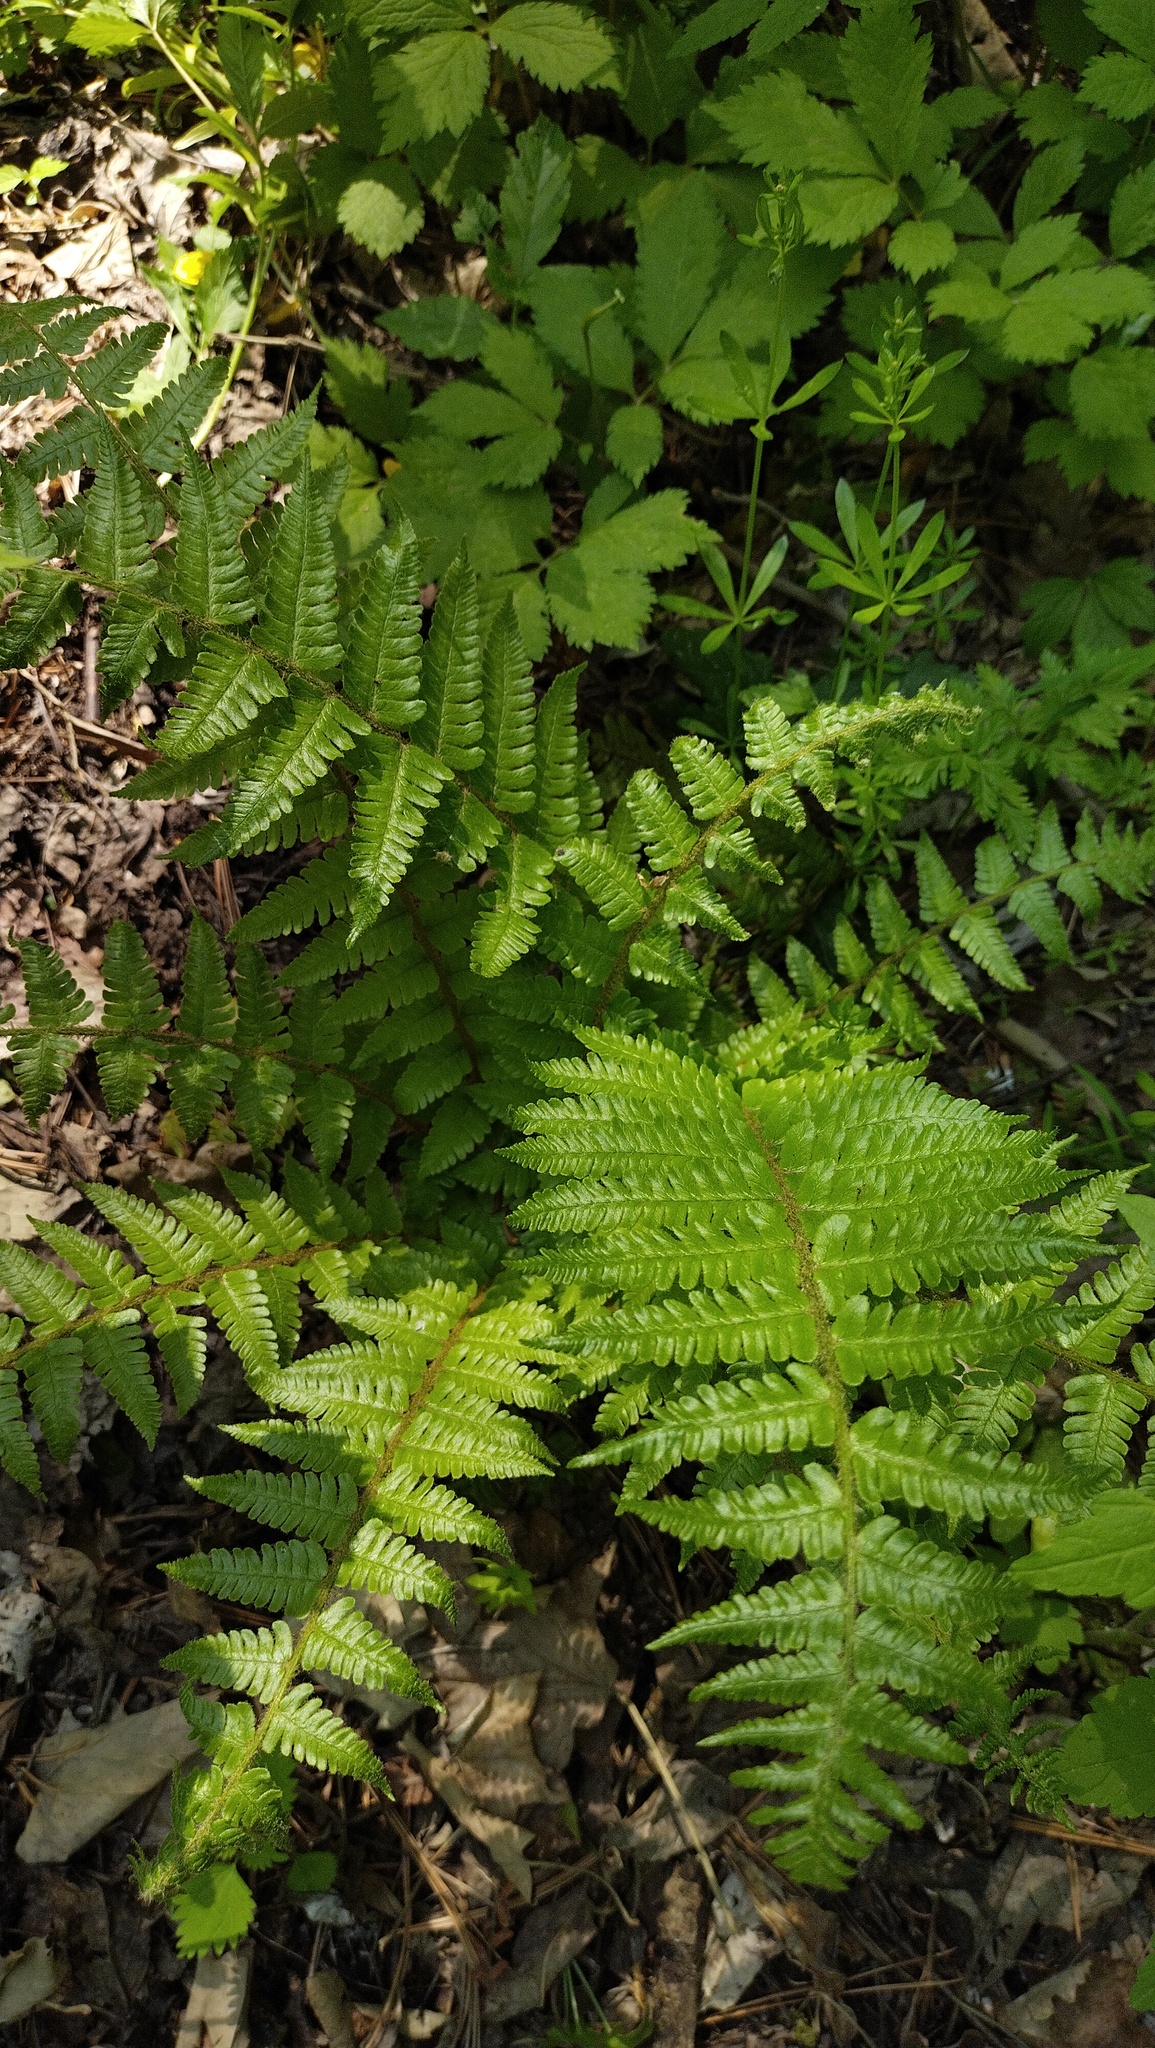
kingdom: Plantae
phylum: Tracheophyta
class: Polypodiopsida
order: Polypodiales
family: Dryopteridaceae
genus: Dryopteris
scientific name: Dryopteris crassirhizoma
